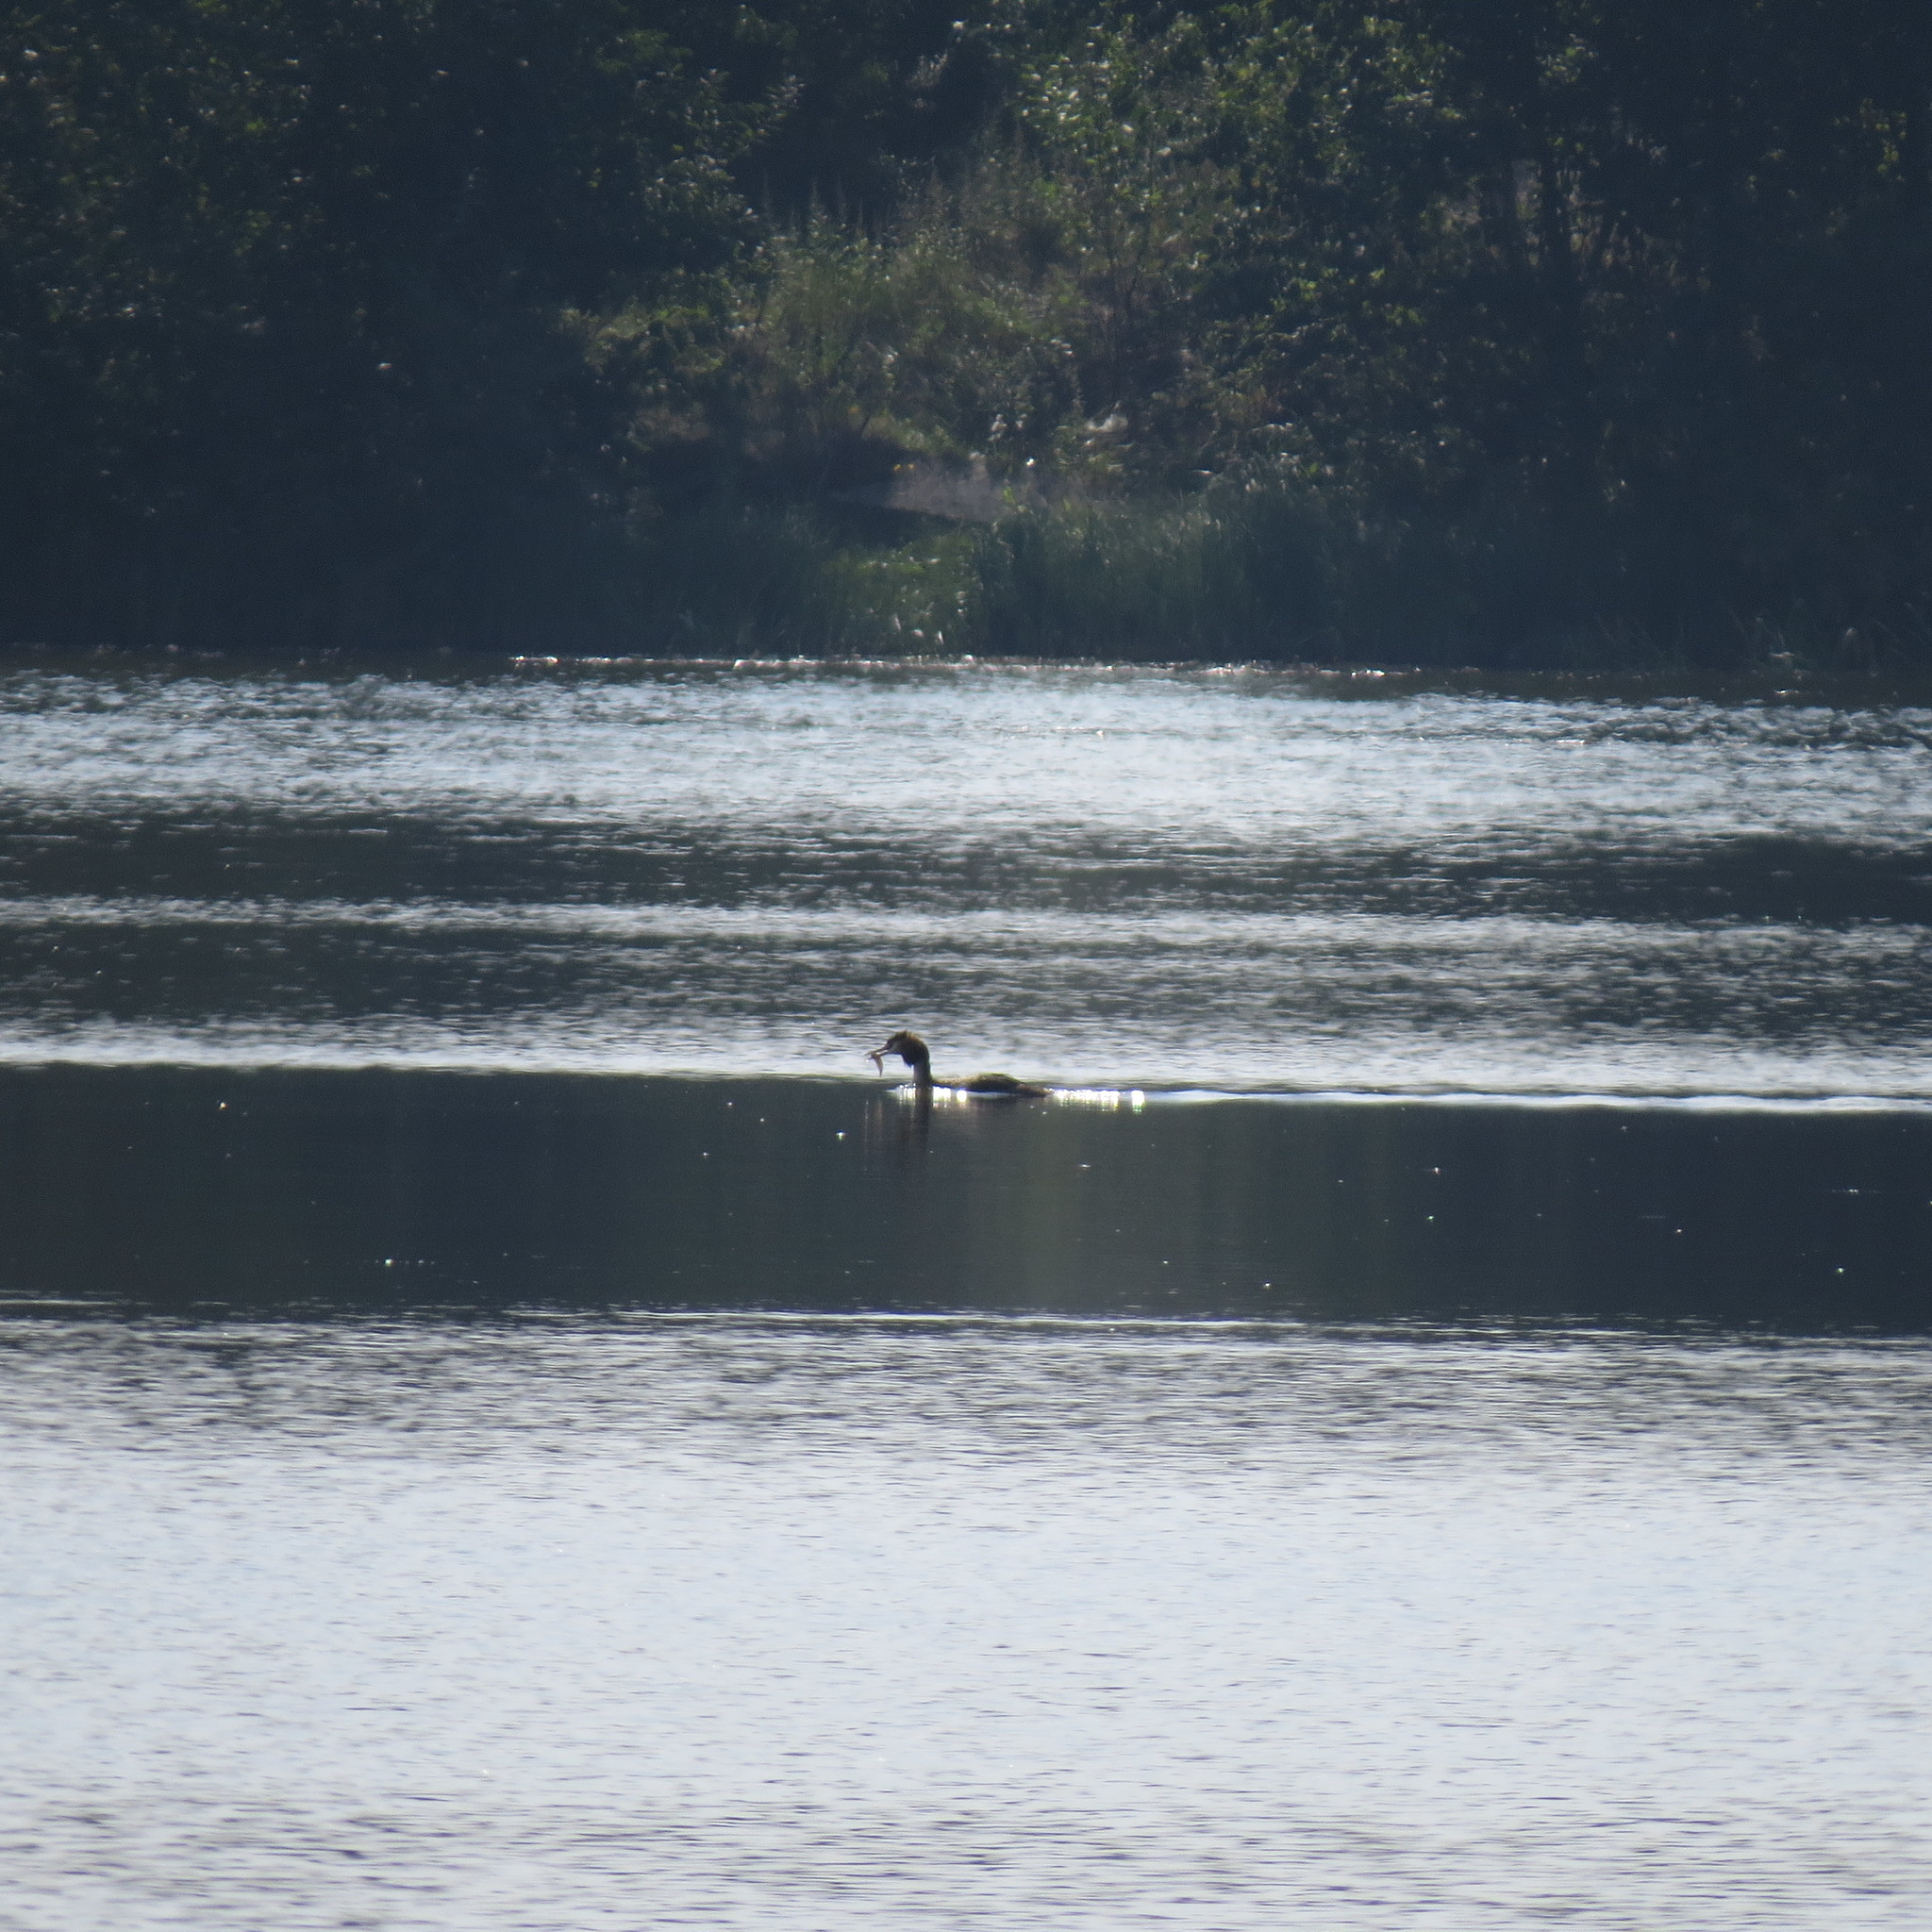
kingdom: Animalia
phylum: Chordata
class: Aves
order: Podicipediformes
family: Podicipedidae
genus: Podiceps
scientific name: Podiceps cristatus
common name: Great crested grebe
